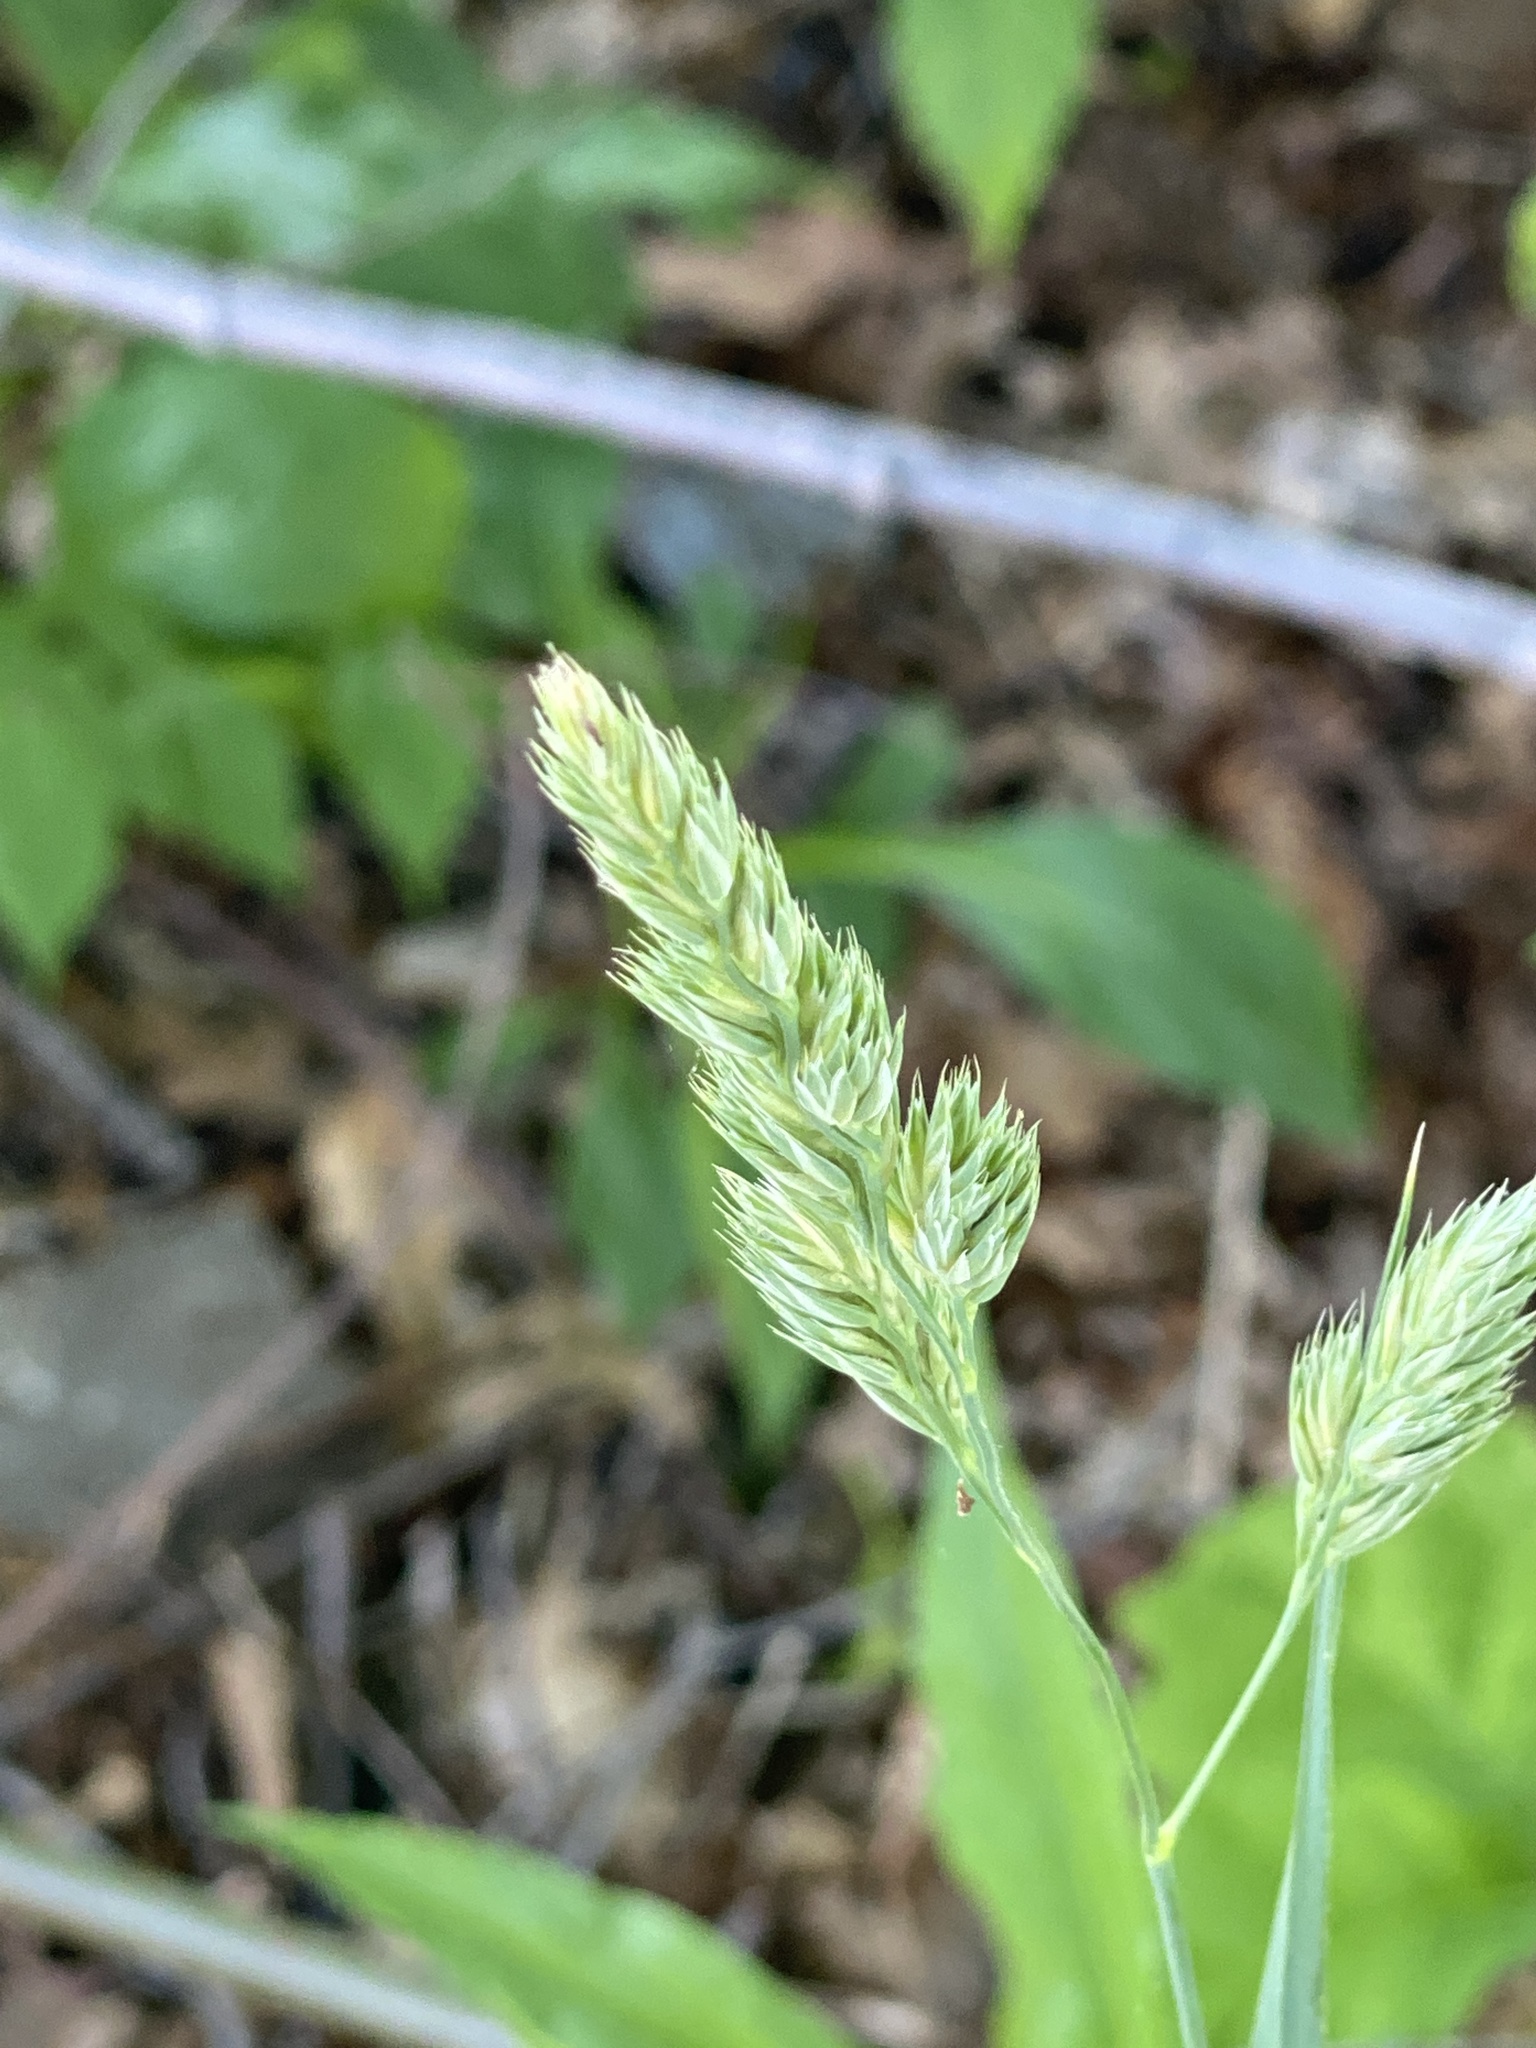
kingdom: Plantae
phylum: Tracheophyta
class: Liliopsida
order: Poales
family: Poaceae
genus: Dactylis
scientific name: Dactylis glomerata
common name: Orchardgrass
